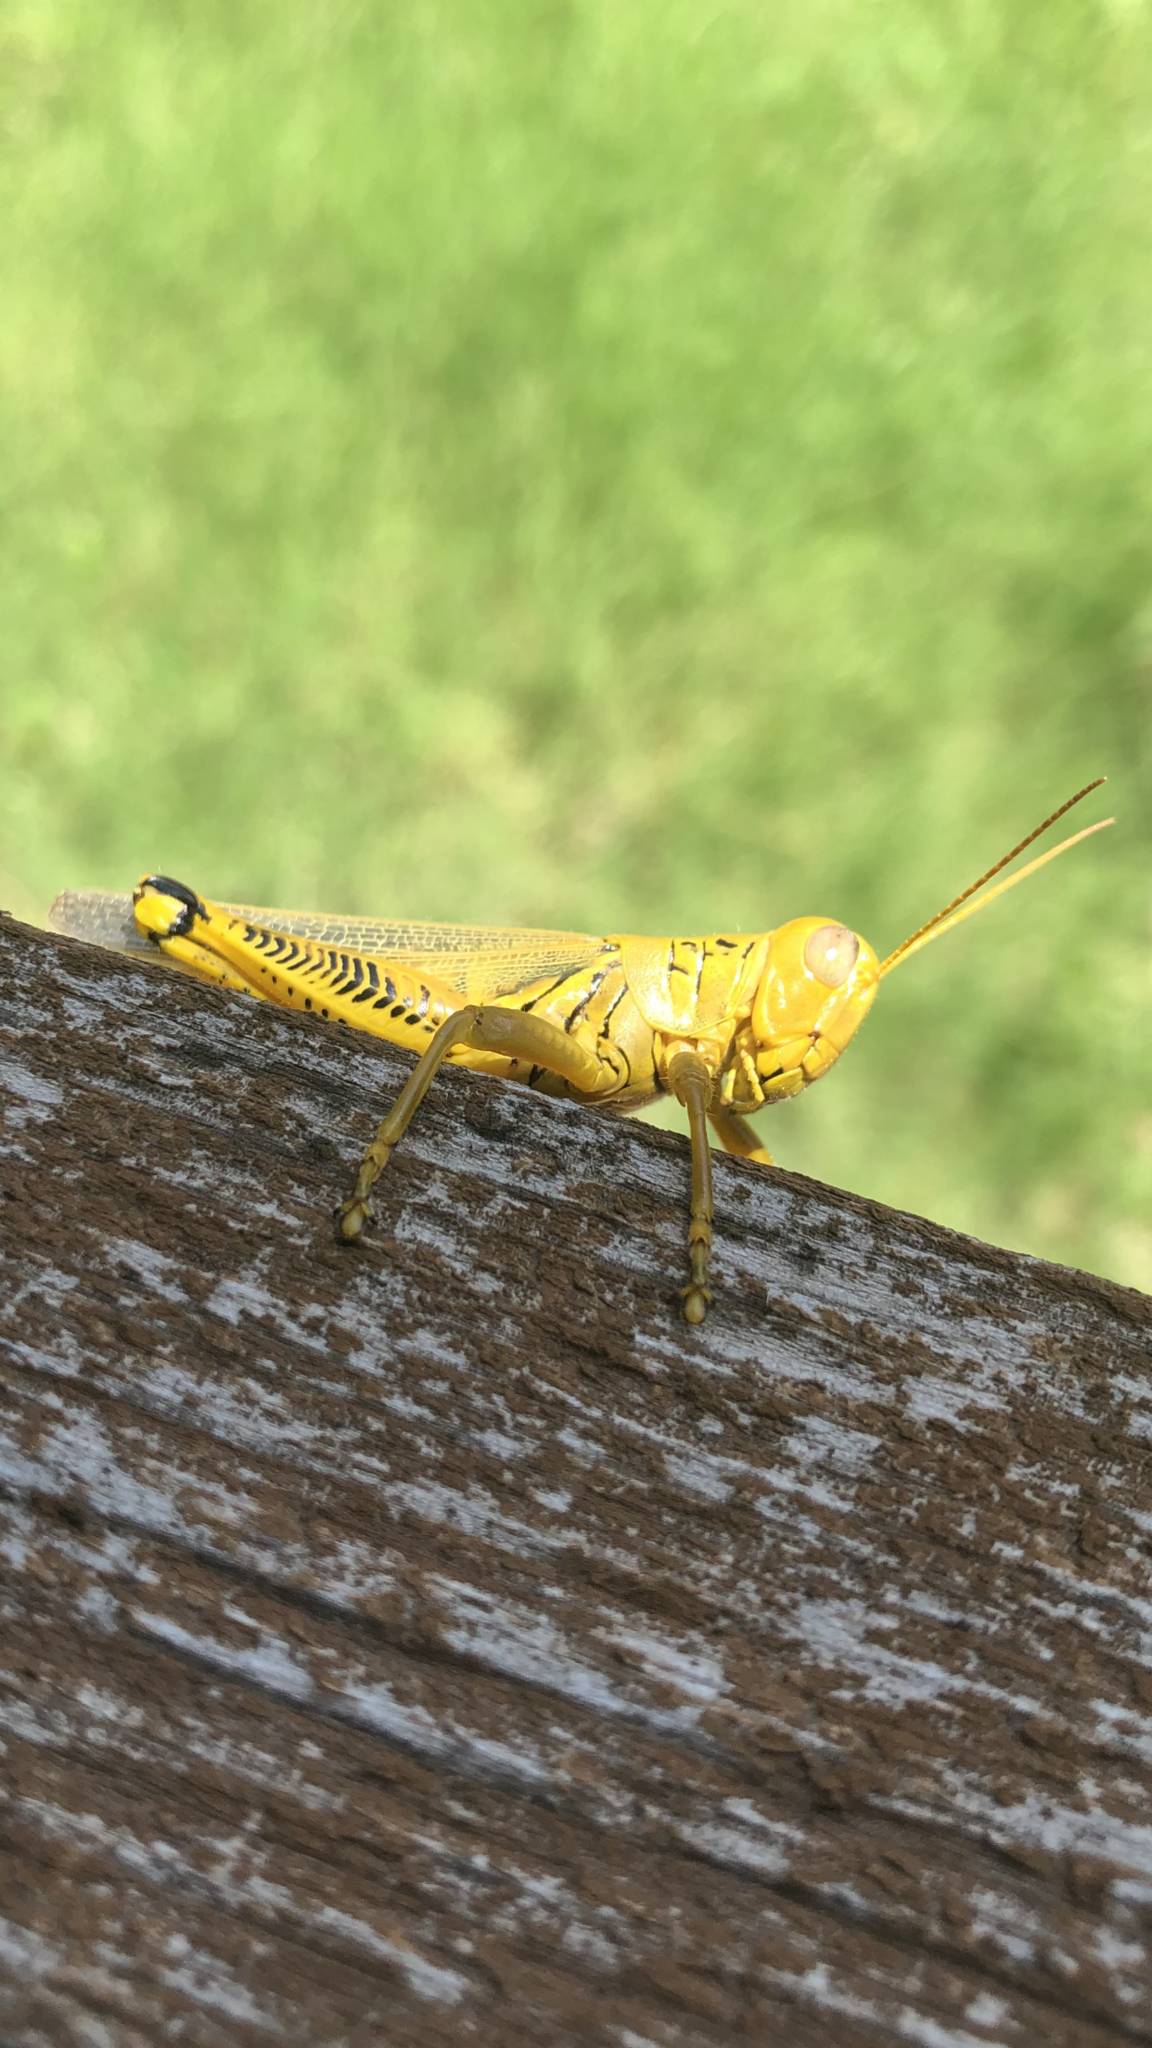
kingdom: Animalia
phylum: Arthropoda
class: Insecta
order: Orthoptera
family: Acrididae
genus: Melanoplus
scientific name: Melanoplus differentialis
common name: Differential grasshopper
